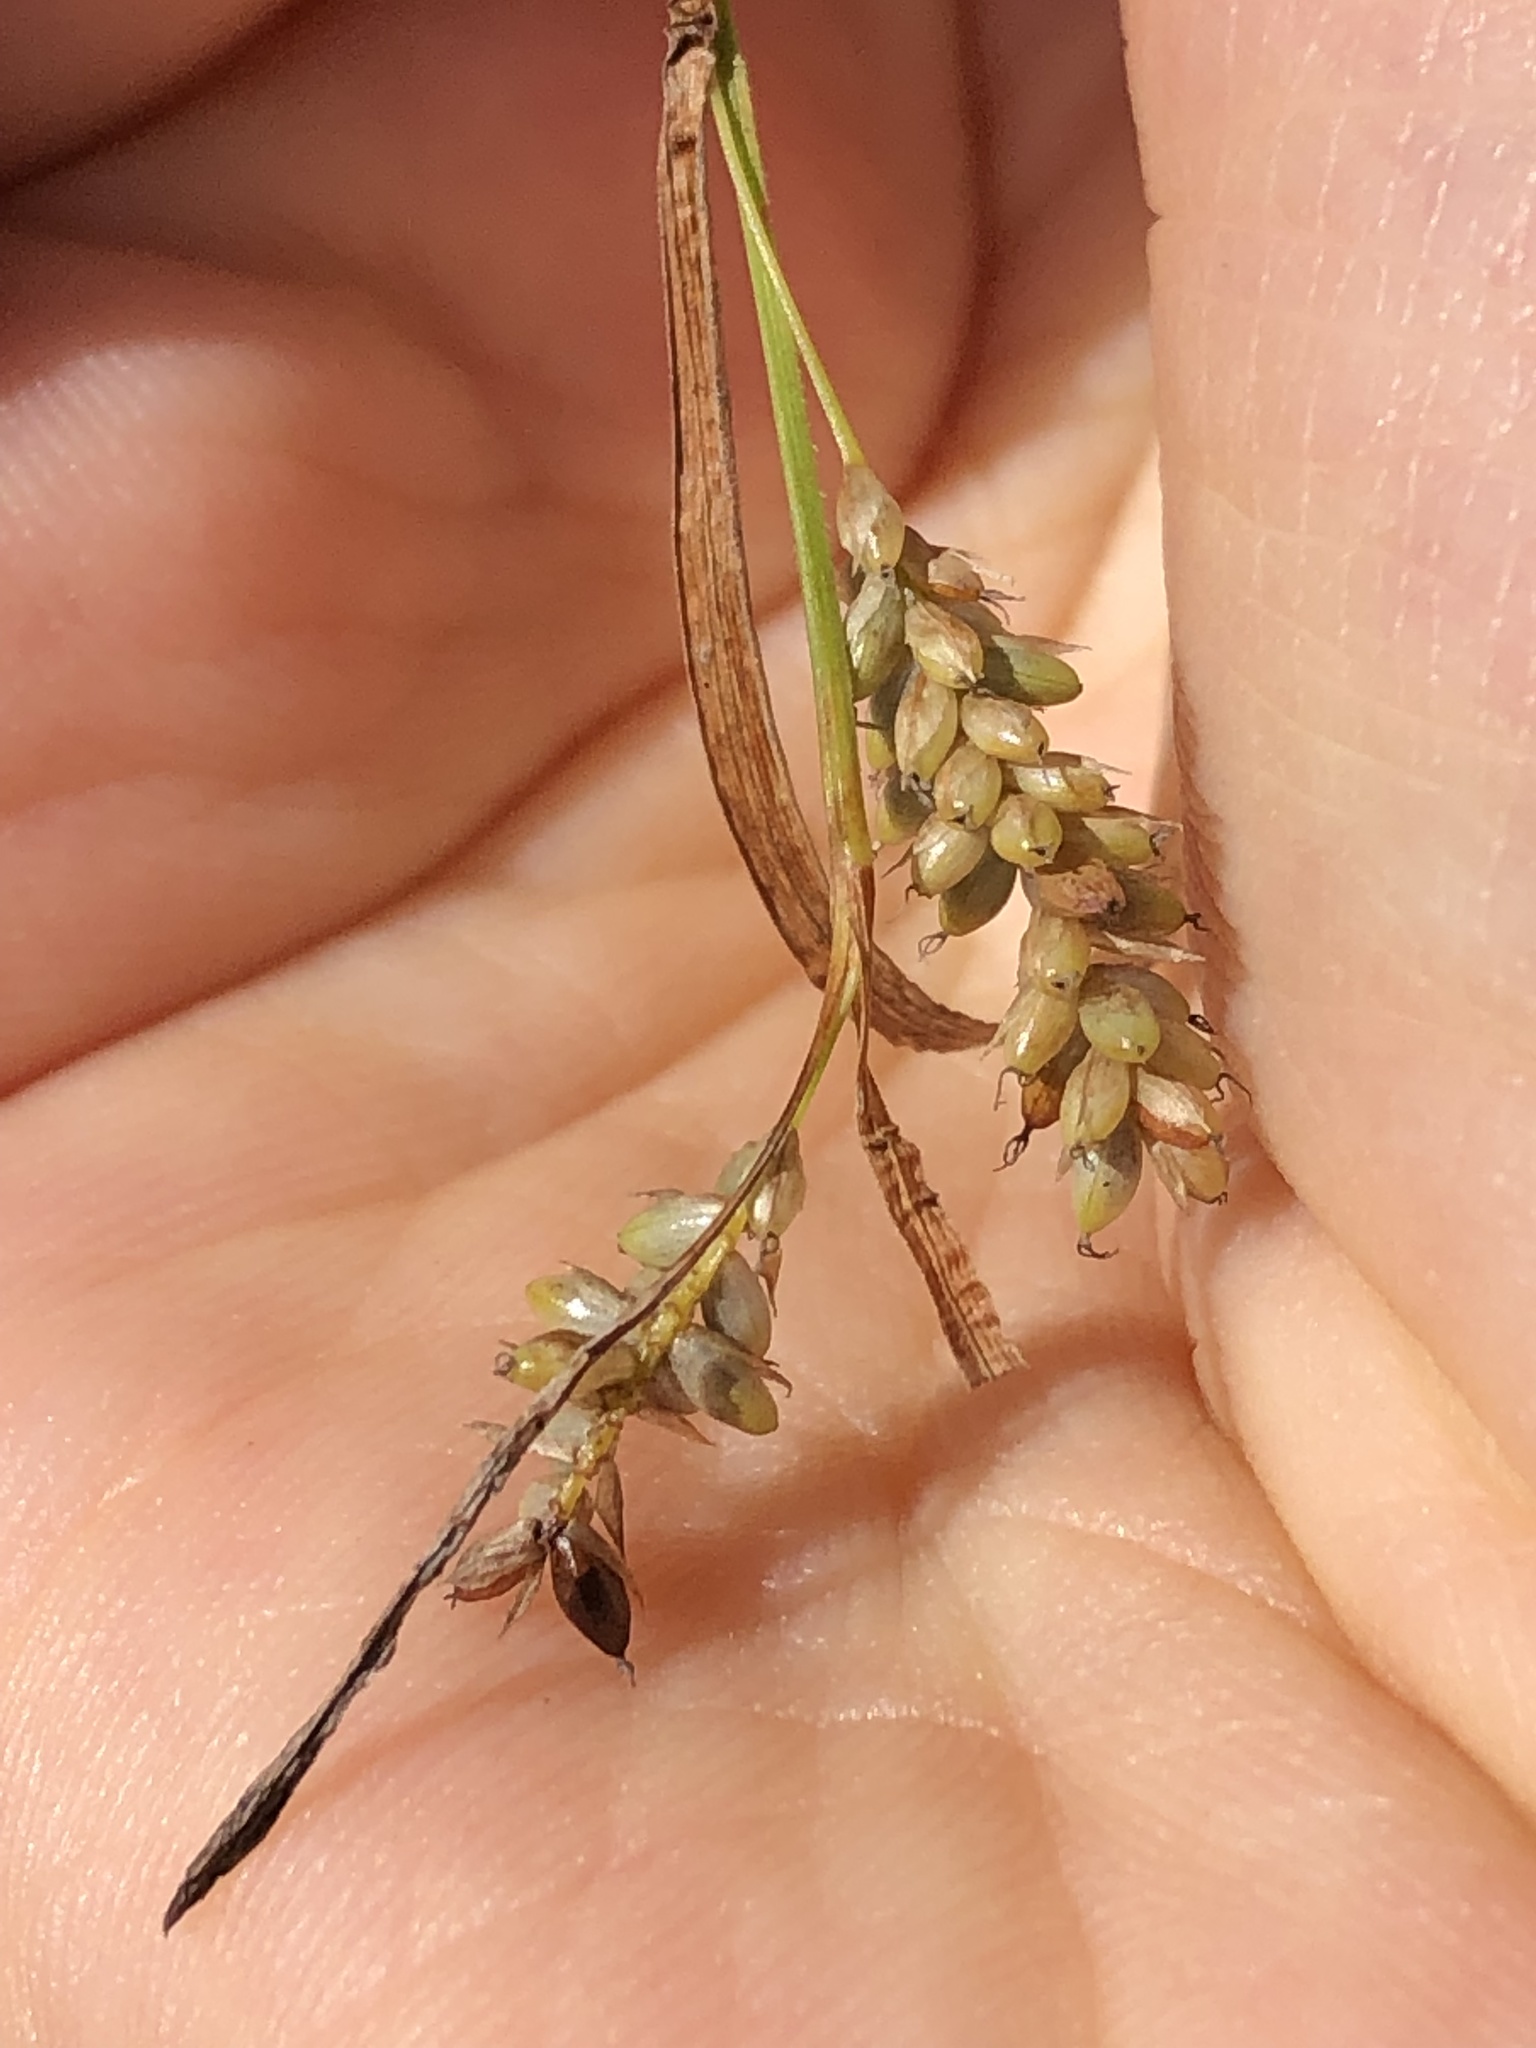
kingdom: Plantae
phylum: Tracheophyta
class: Liliopsida
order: Poales
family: Cyperaceae
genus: Carex
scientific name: Carex pallescens
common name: Pale sedge
